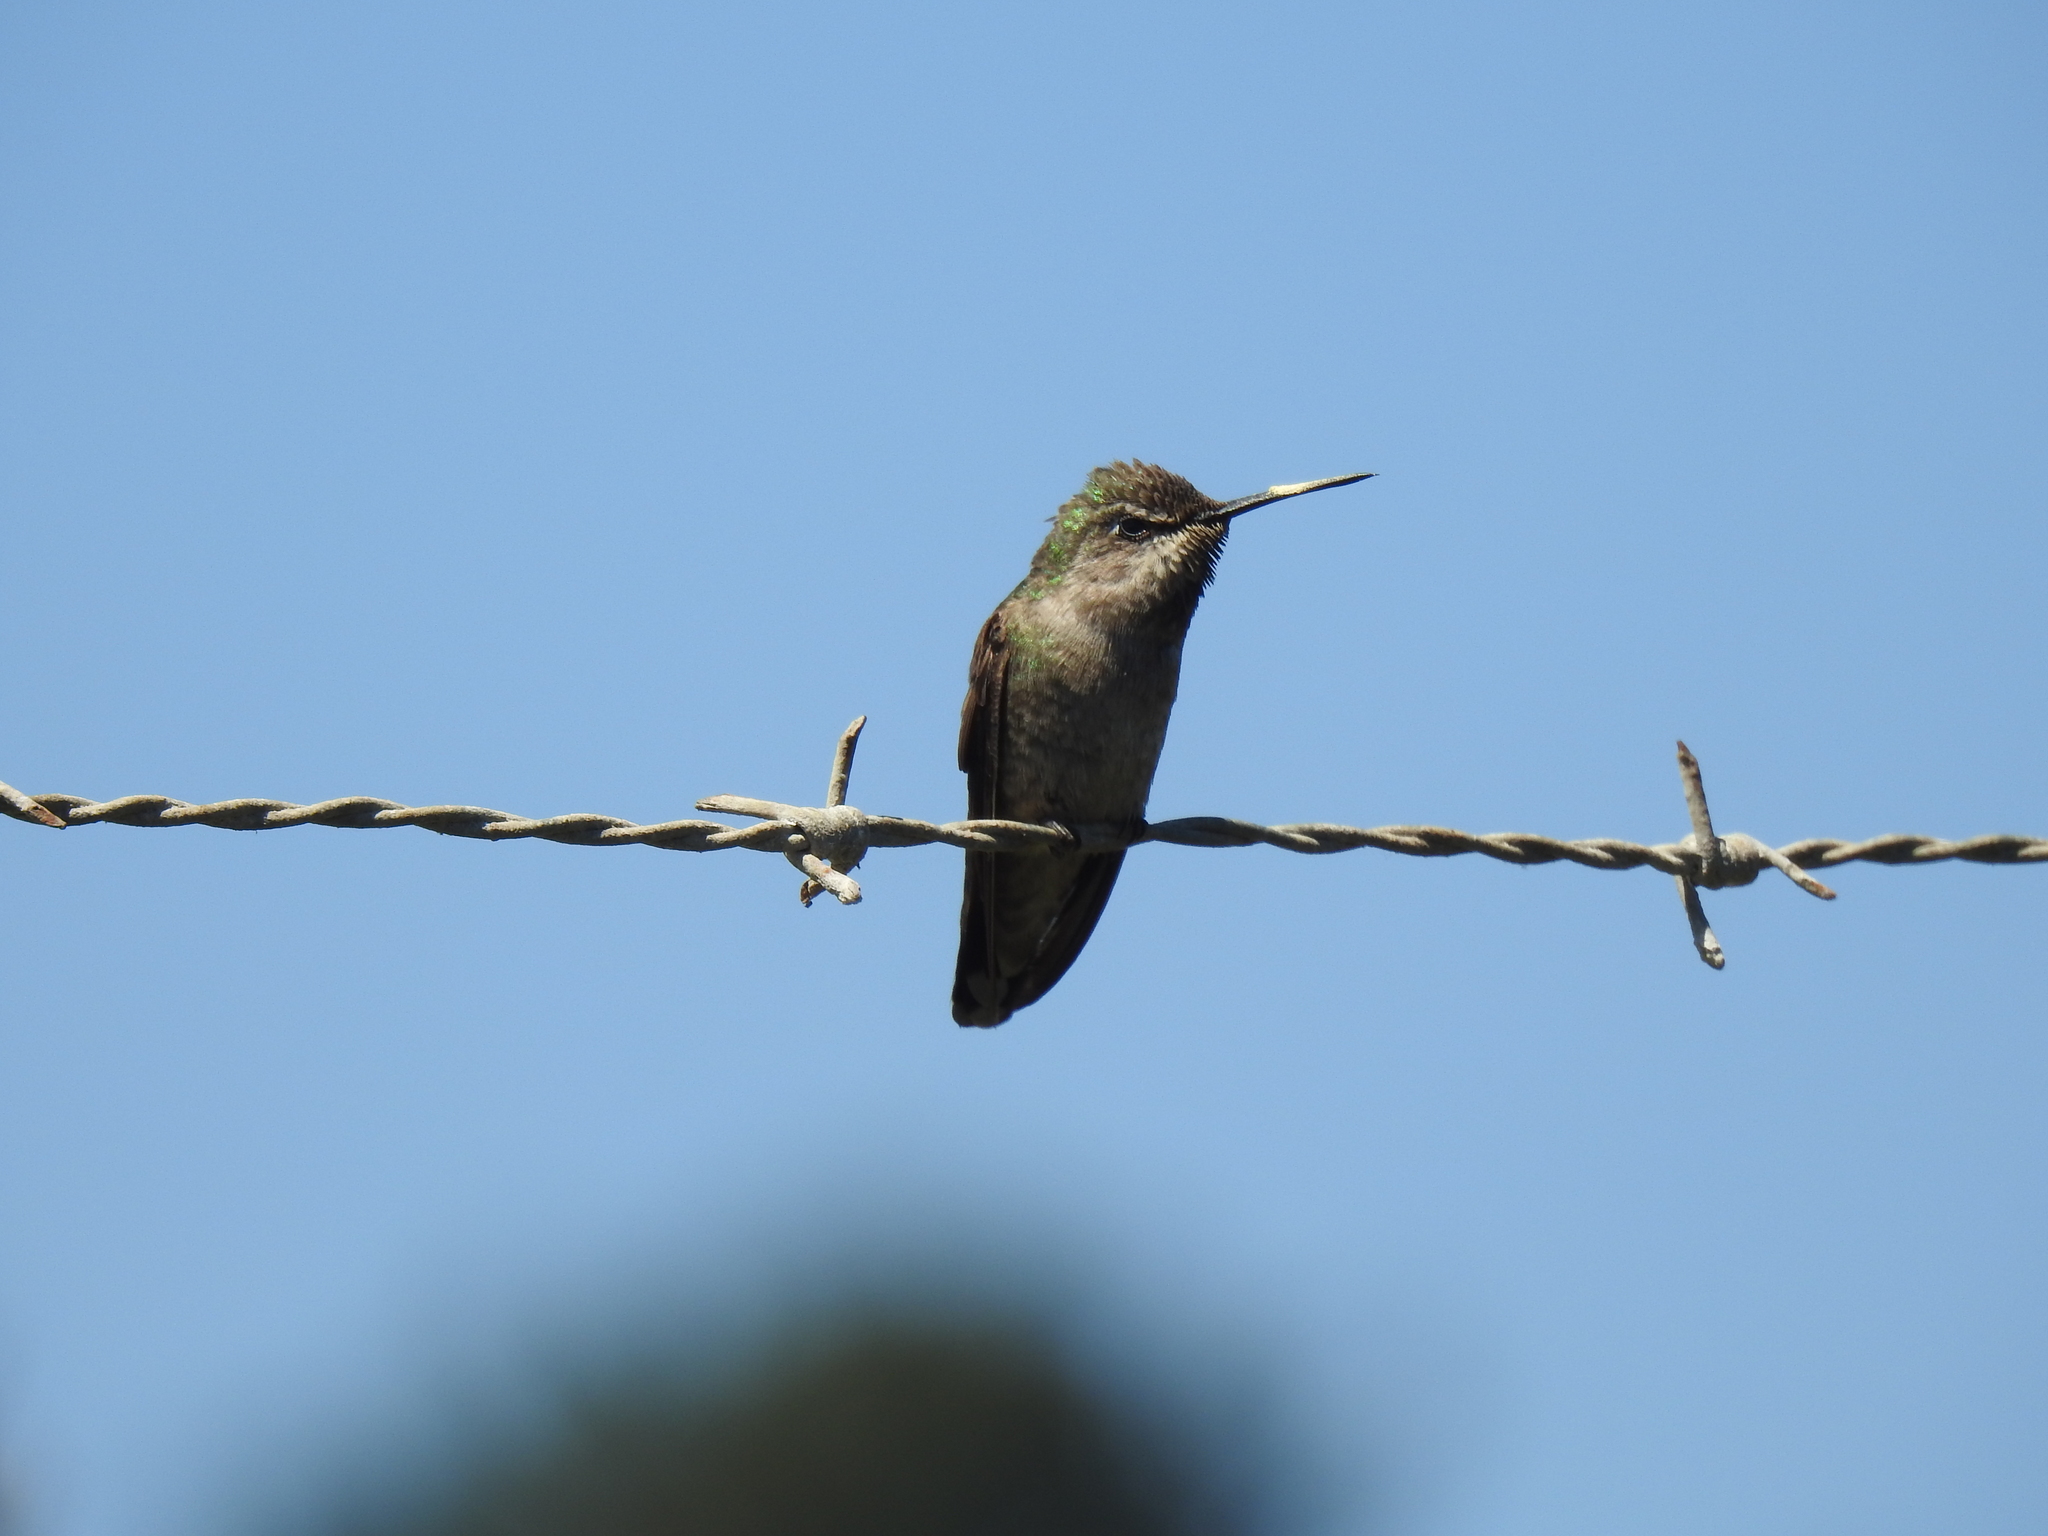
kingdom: Animalia
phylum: Chordata
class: Aves
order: Apodiformes
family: Trochilidae
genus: Calypte
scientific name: Calypte anna
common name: Anna's hummingbird
